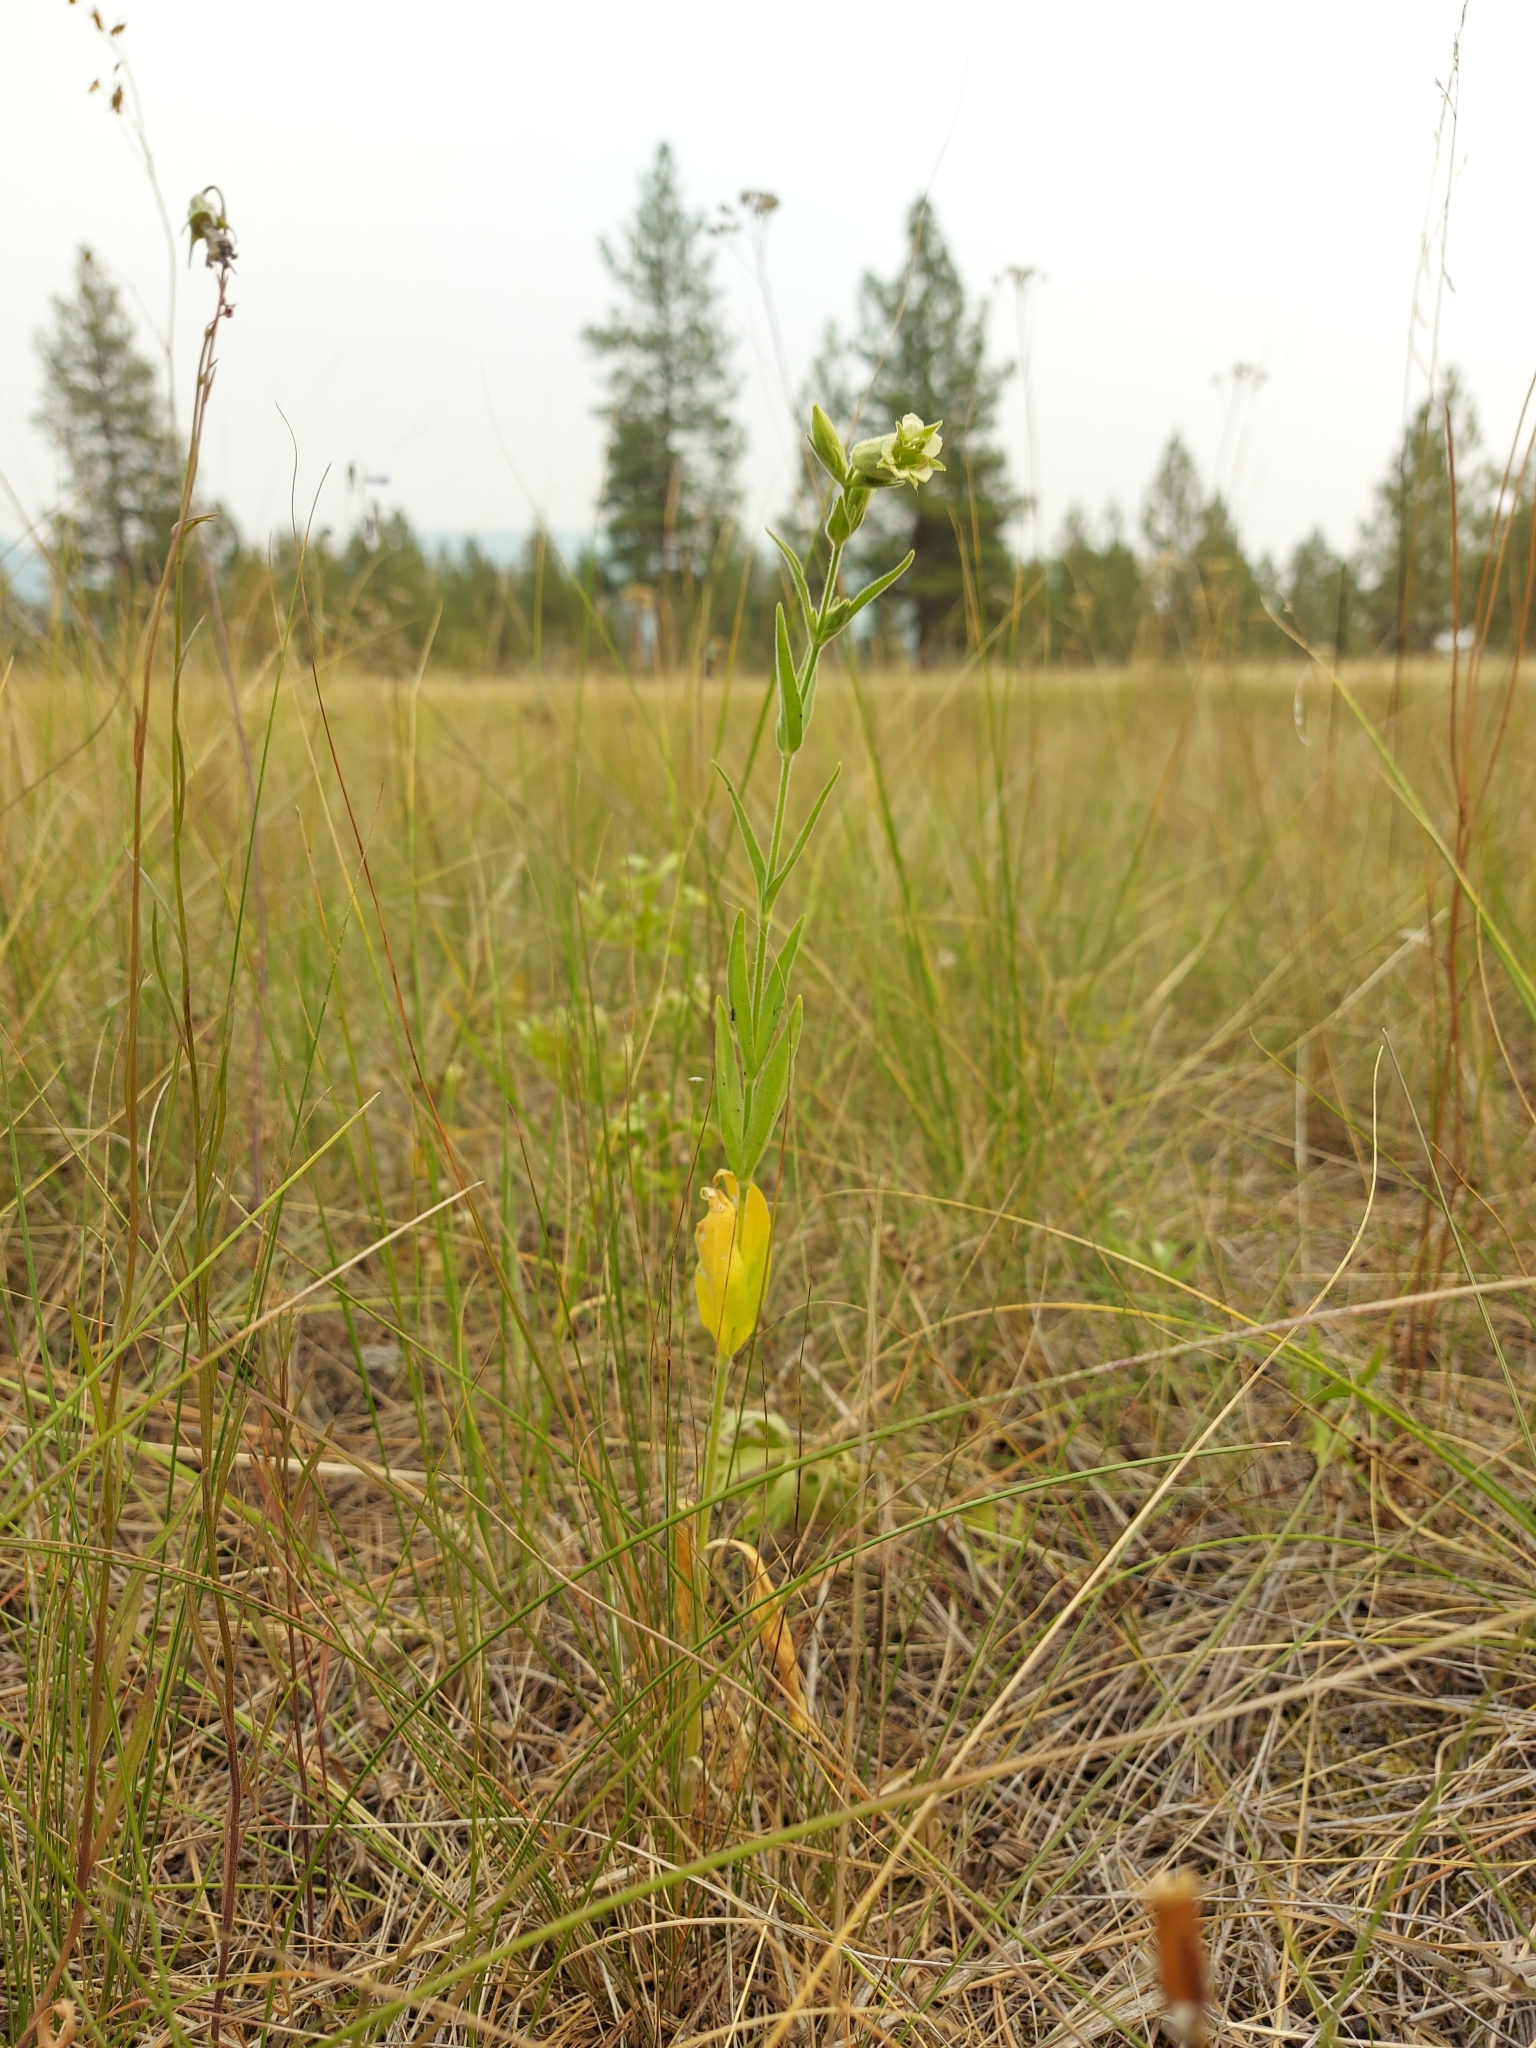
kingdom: Plantae
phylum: Tracheophyta
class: Magnoliopsida
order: Caryophyllales
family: Caryophyllaceae
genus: Silene
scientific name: Silene spaldingii
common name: Spalding's campion
